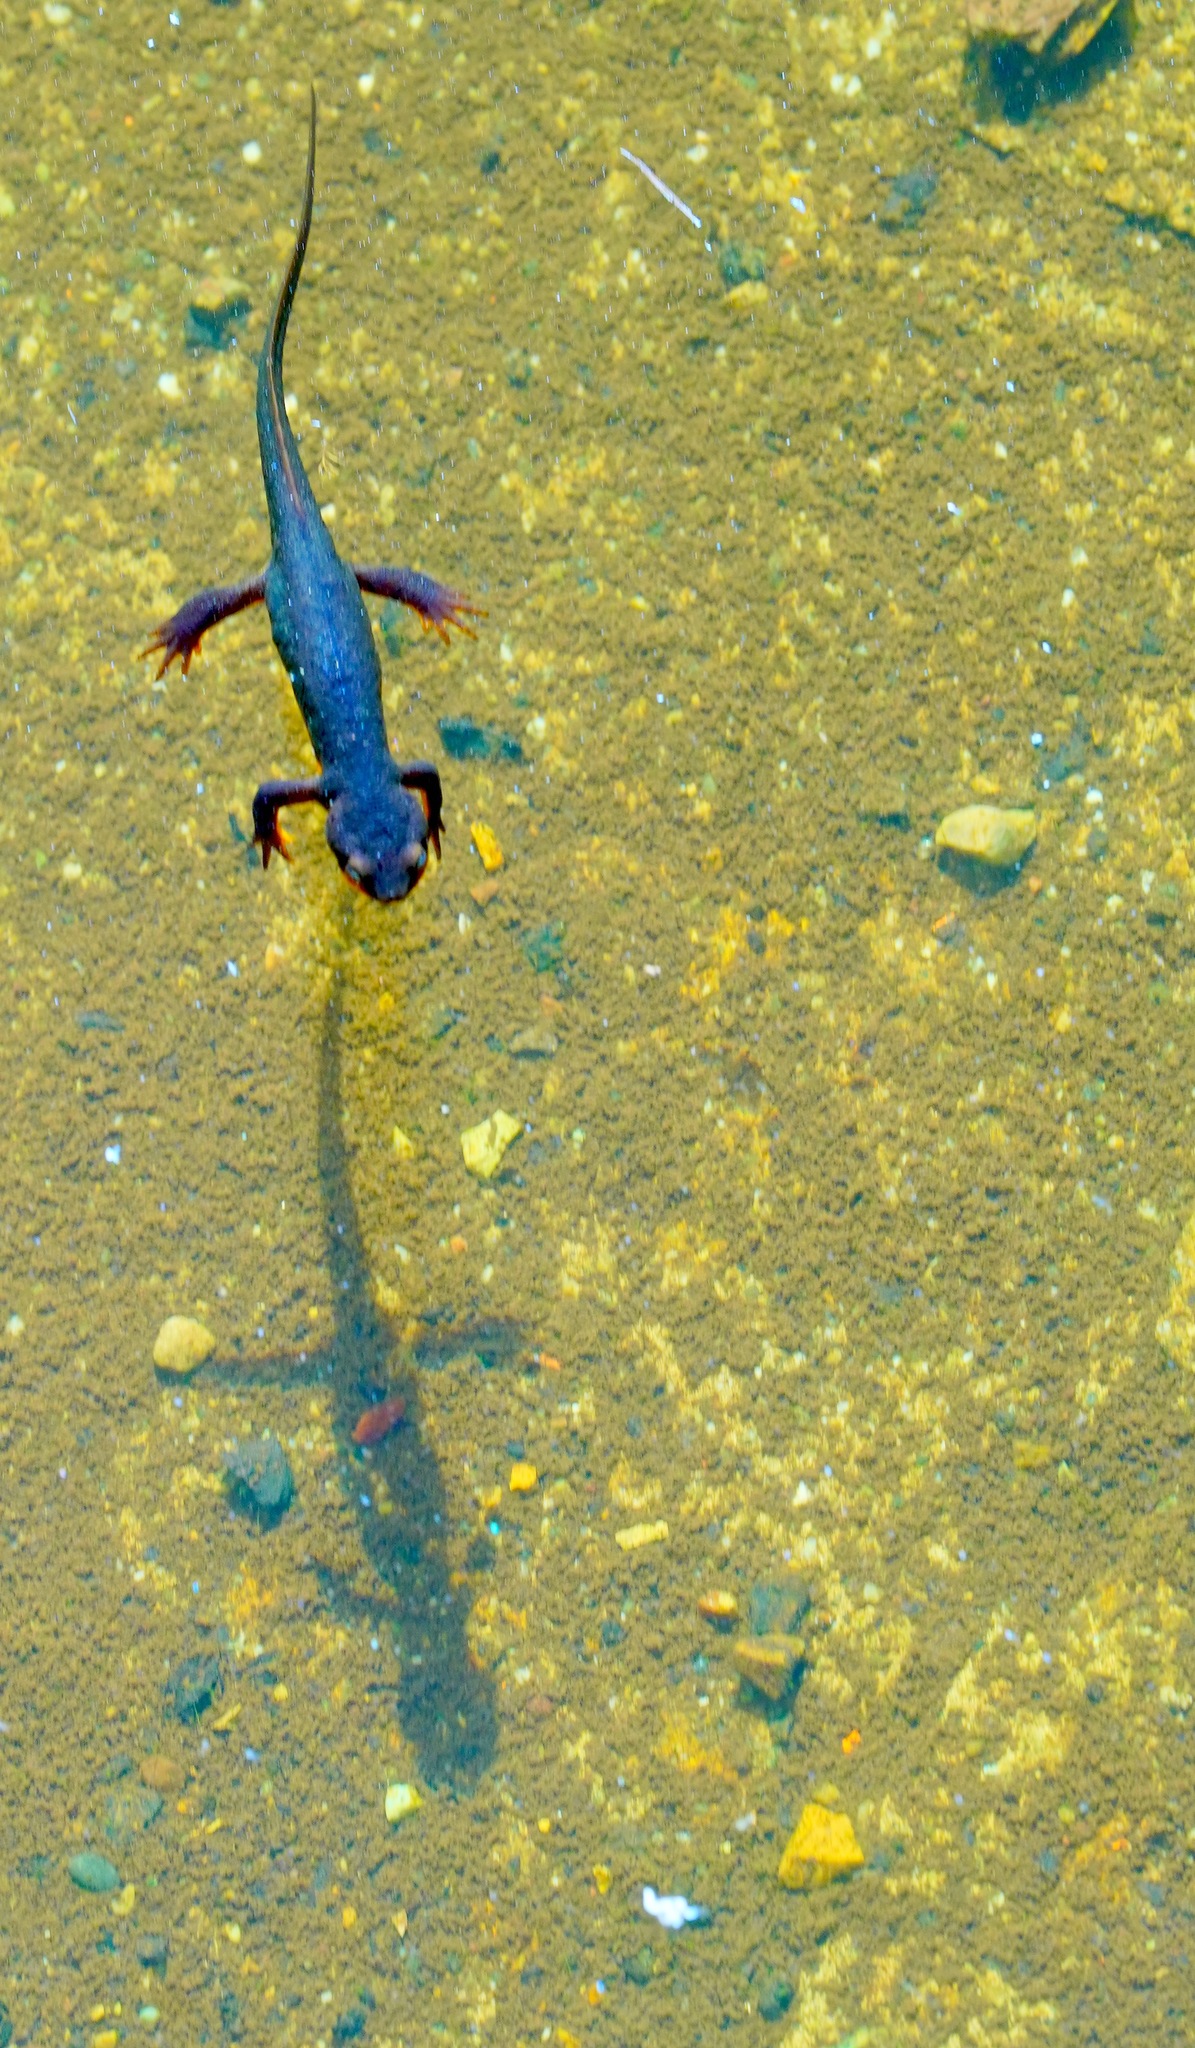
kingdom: Animalia
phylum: Chordata
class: Amphibia
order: Caudata
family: Salamandridae
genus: Taricha
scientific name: Taricha torosa
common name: California newt
